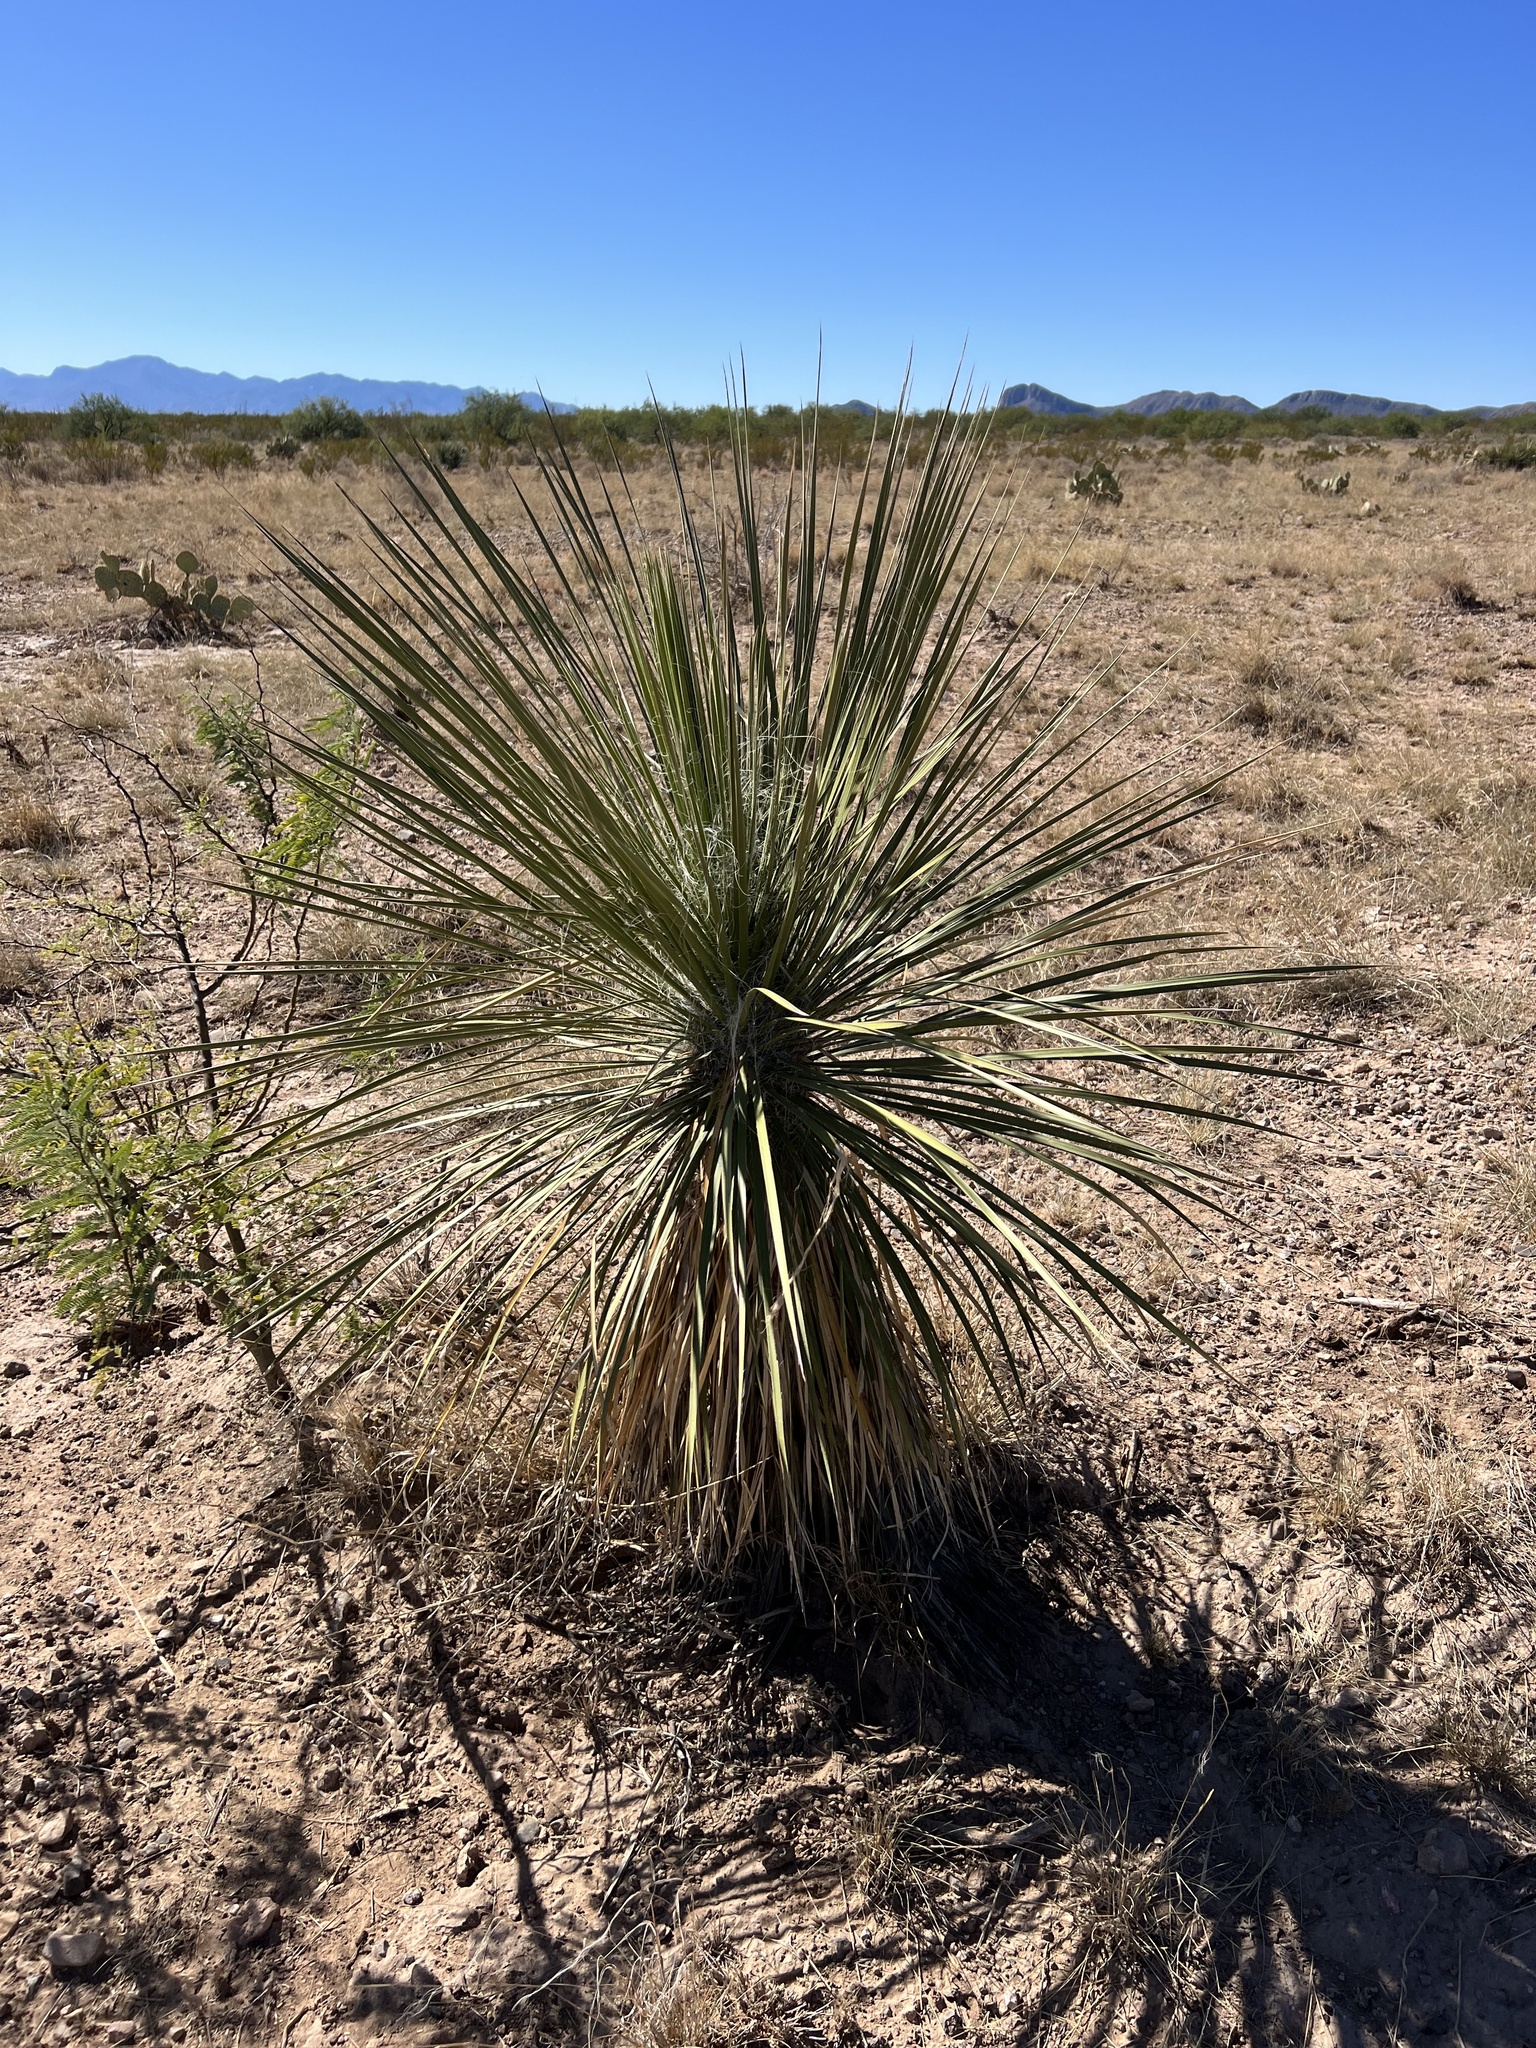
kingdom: Plantae
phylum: Tracheophyta
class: Liliopsida
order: Asparagales
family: Asparagaceae
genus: Yucca
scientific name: Yucca elata
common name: Palmella
